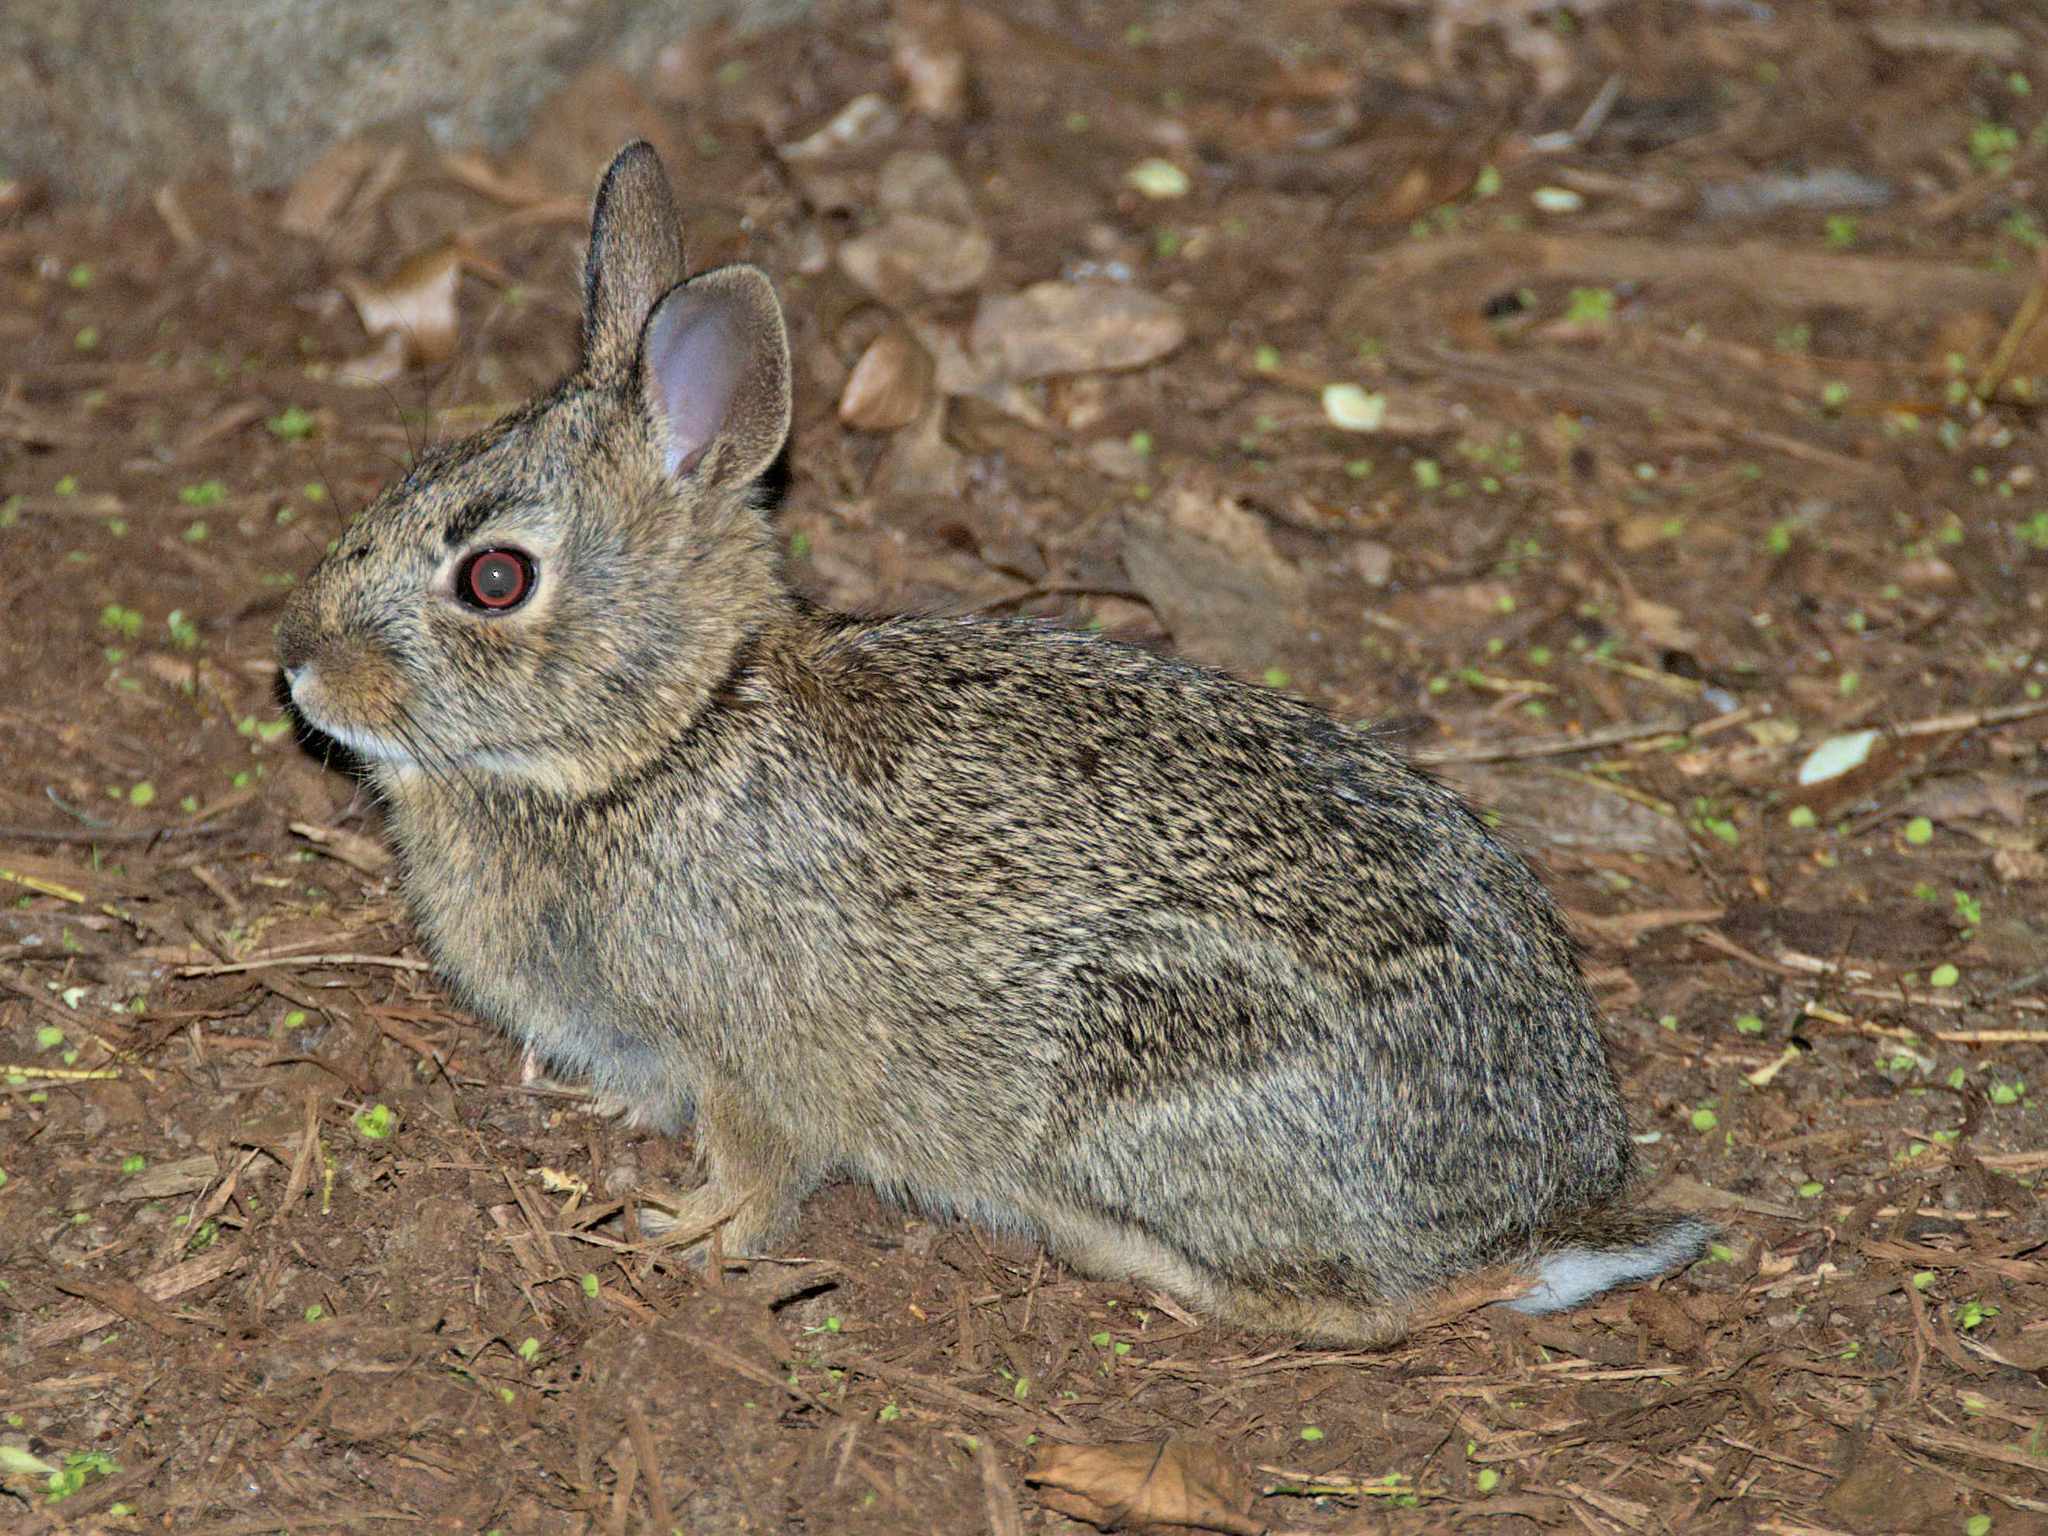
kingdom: Animalia
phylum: Chordata
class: Mammalia
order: Lagomorpha
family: Leporidae
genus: Sylvilagus
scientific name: Sylvilagus transitionalis
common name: New england cottontail
